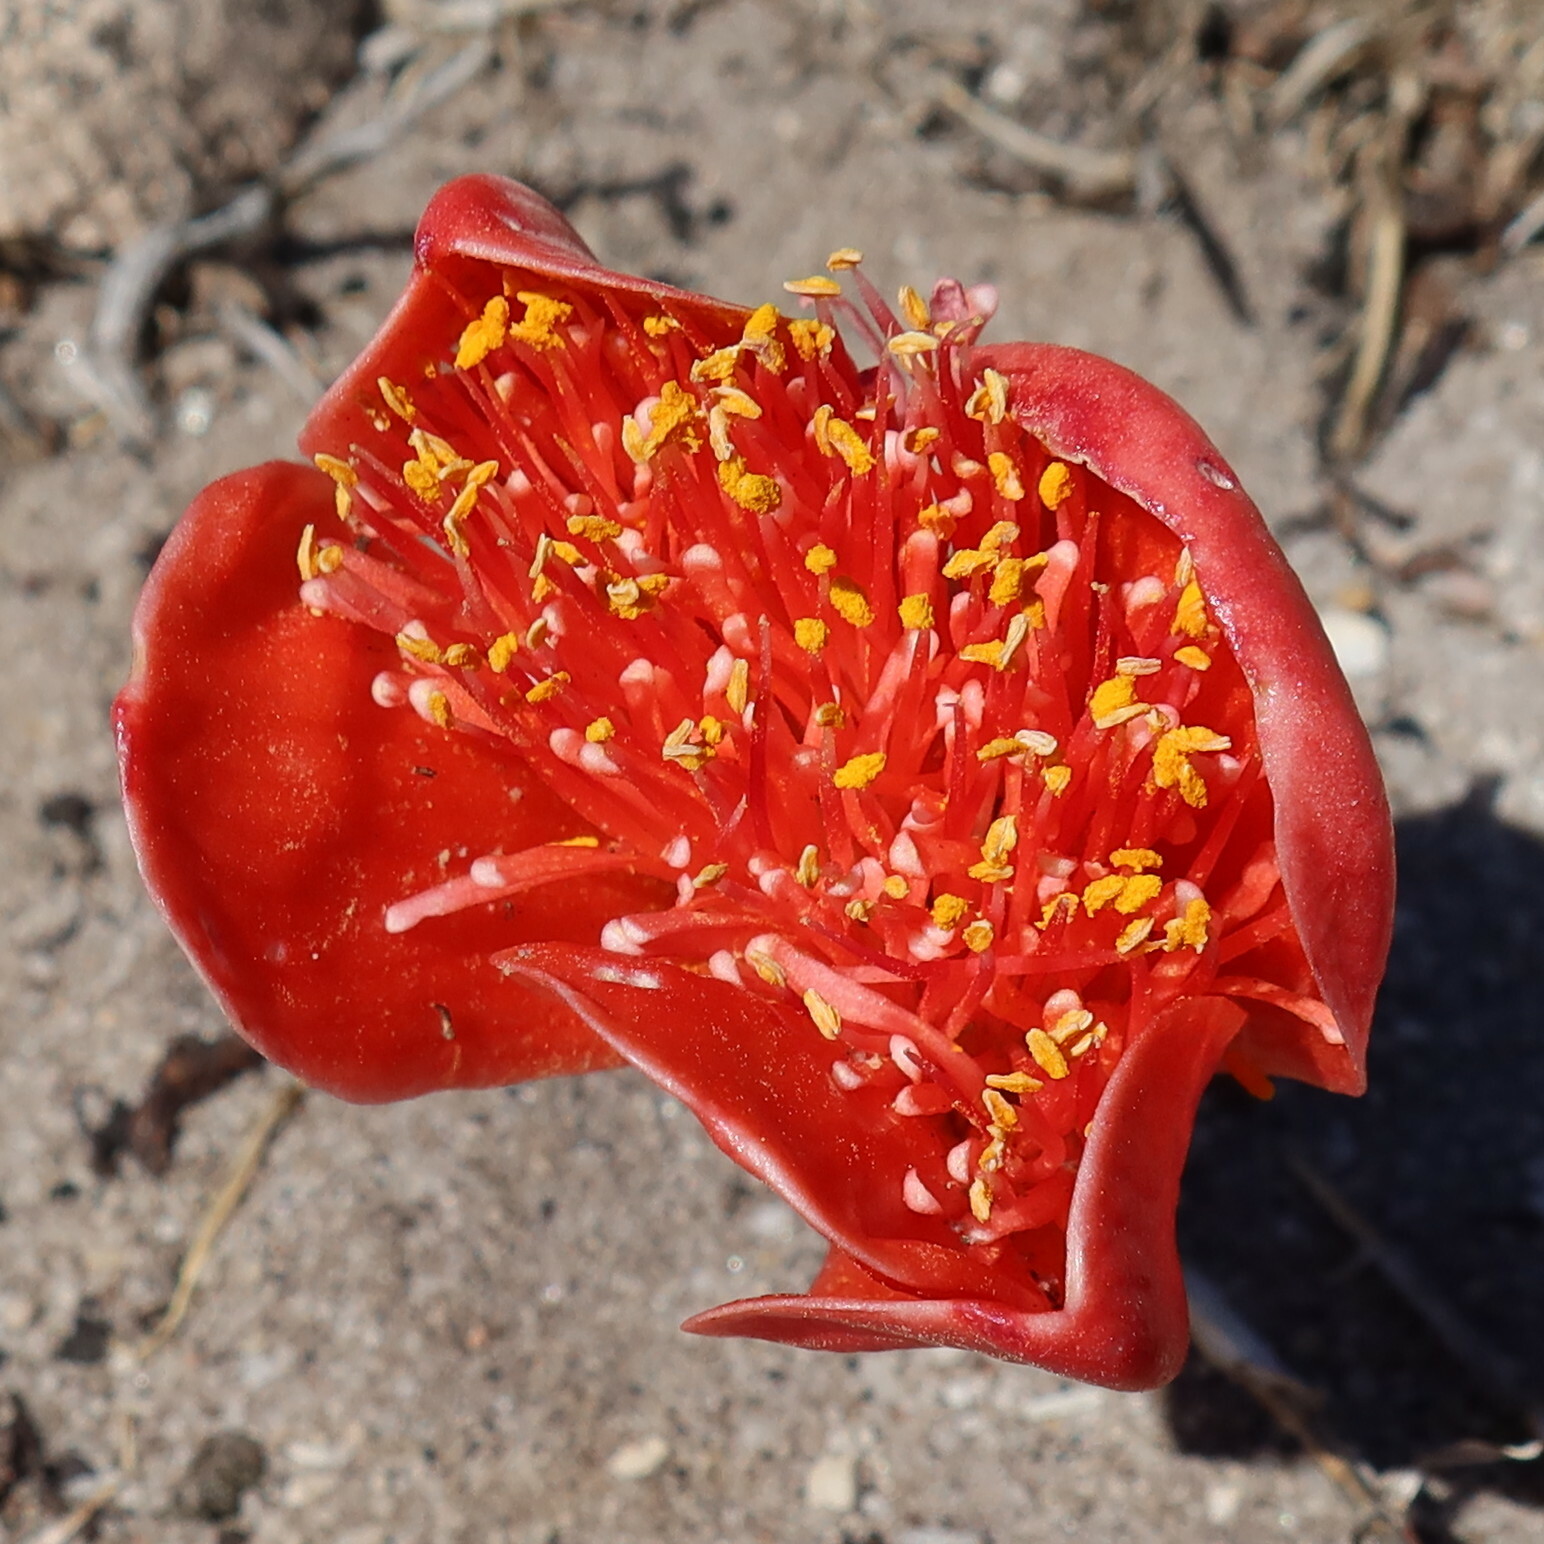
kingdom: Plantae
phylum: Tracheophyta
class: Liliopsida
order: Asparagales
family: Amaryllidaceae
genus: Haemanthus
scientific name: Haemanthus coccineus
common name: Cape-tulip
